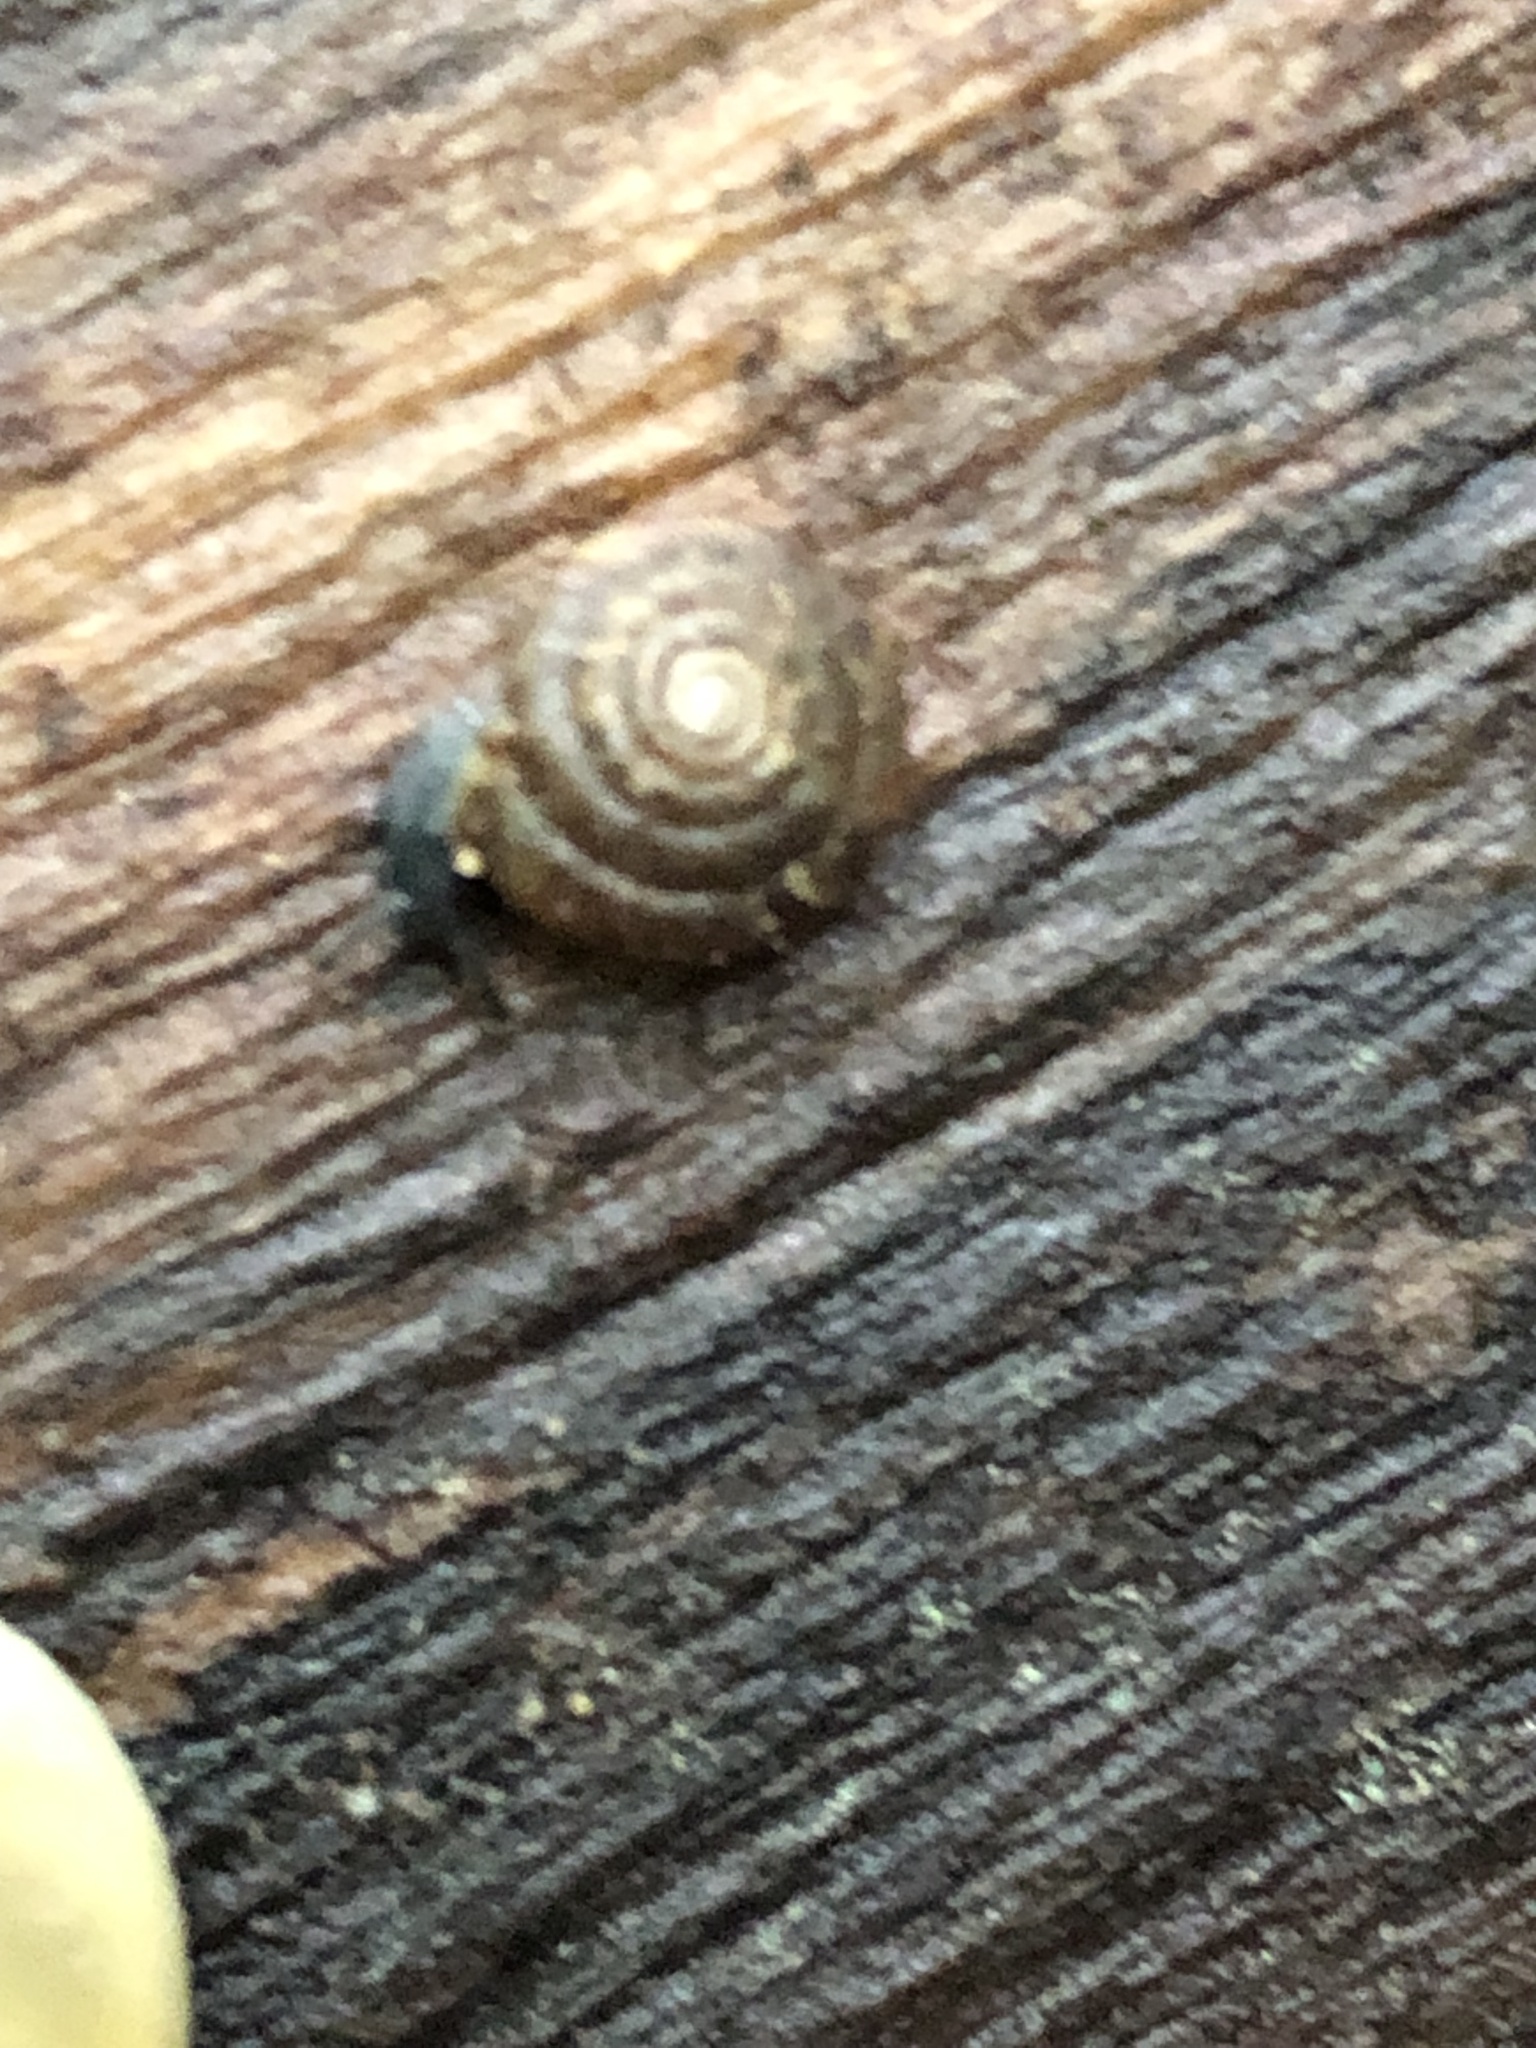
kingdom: Animalia
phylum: Mollusca
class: Gastropoda
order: Stylommatophora
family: Discidae
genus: Discus
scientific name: Discus rotundatus
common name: Rounded snail
